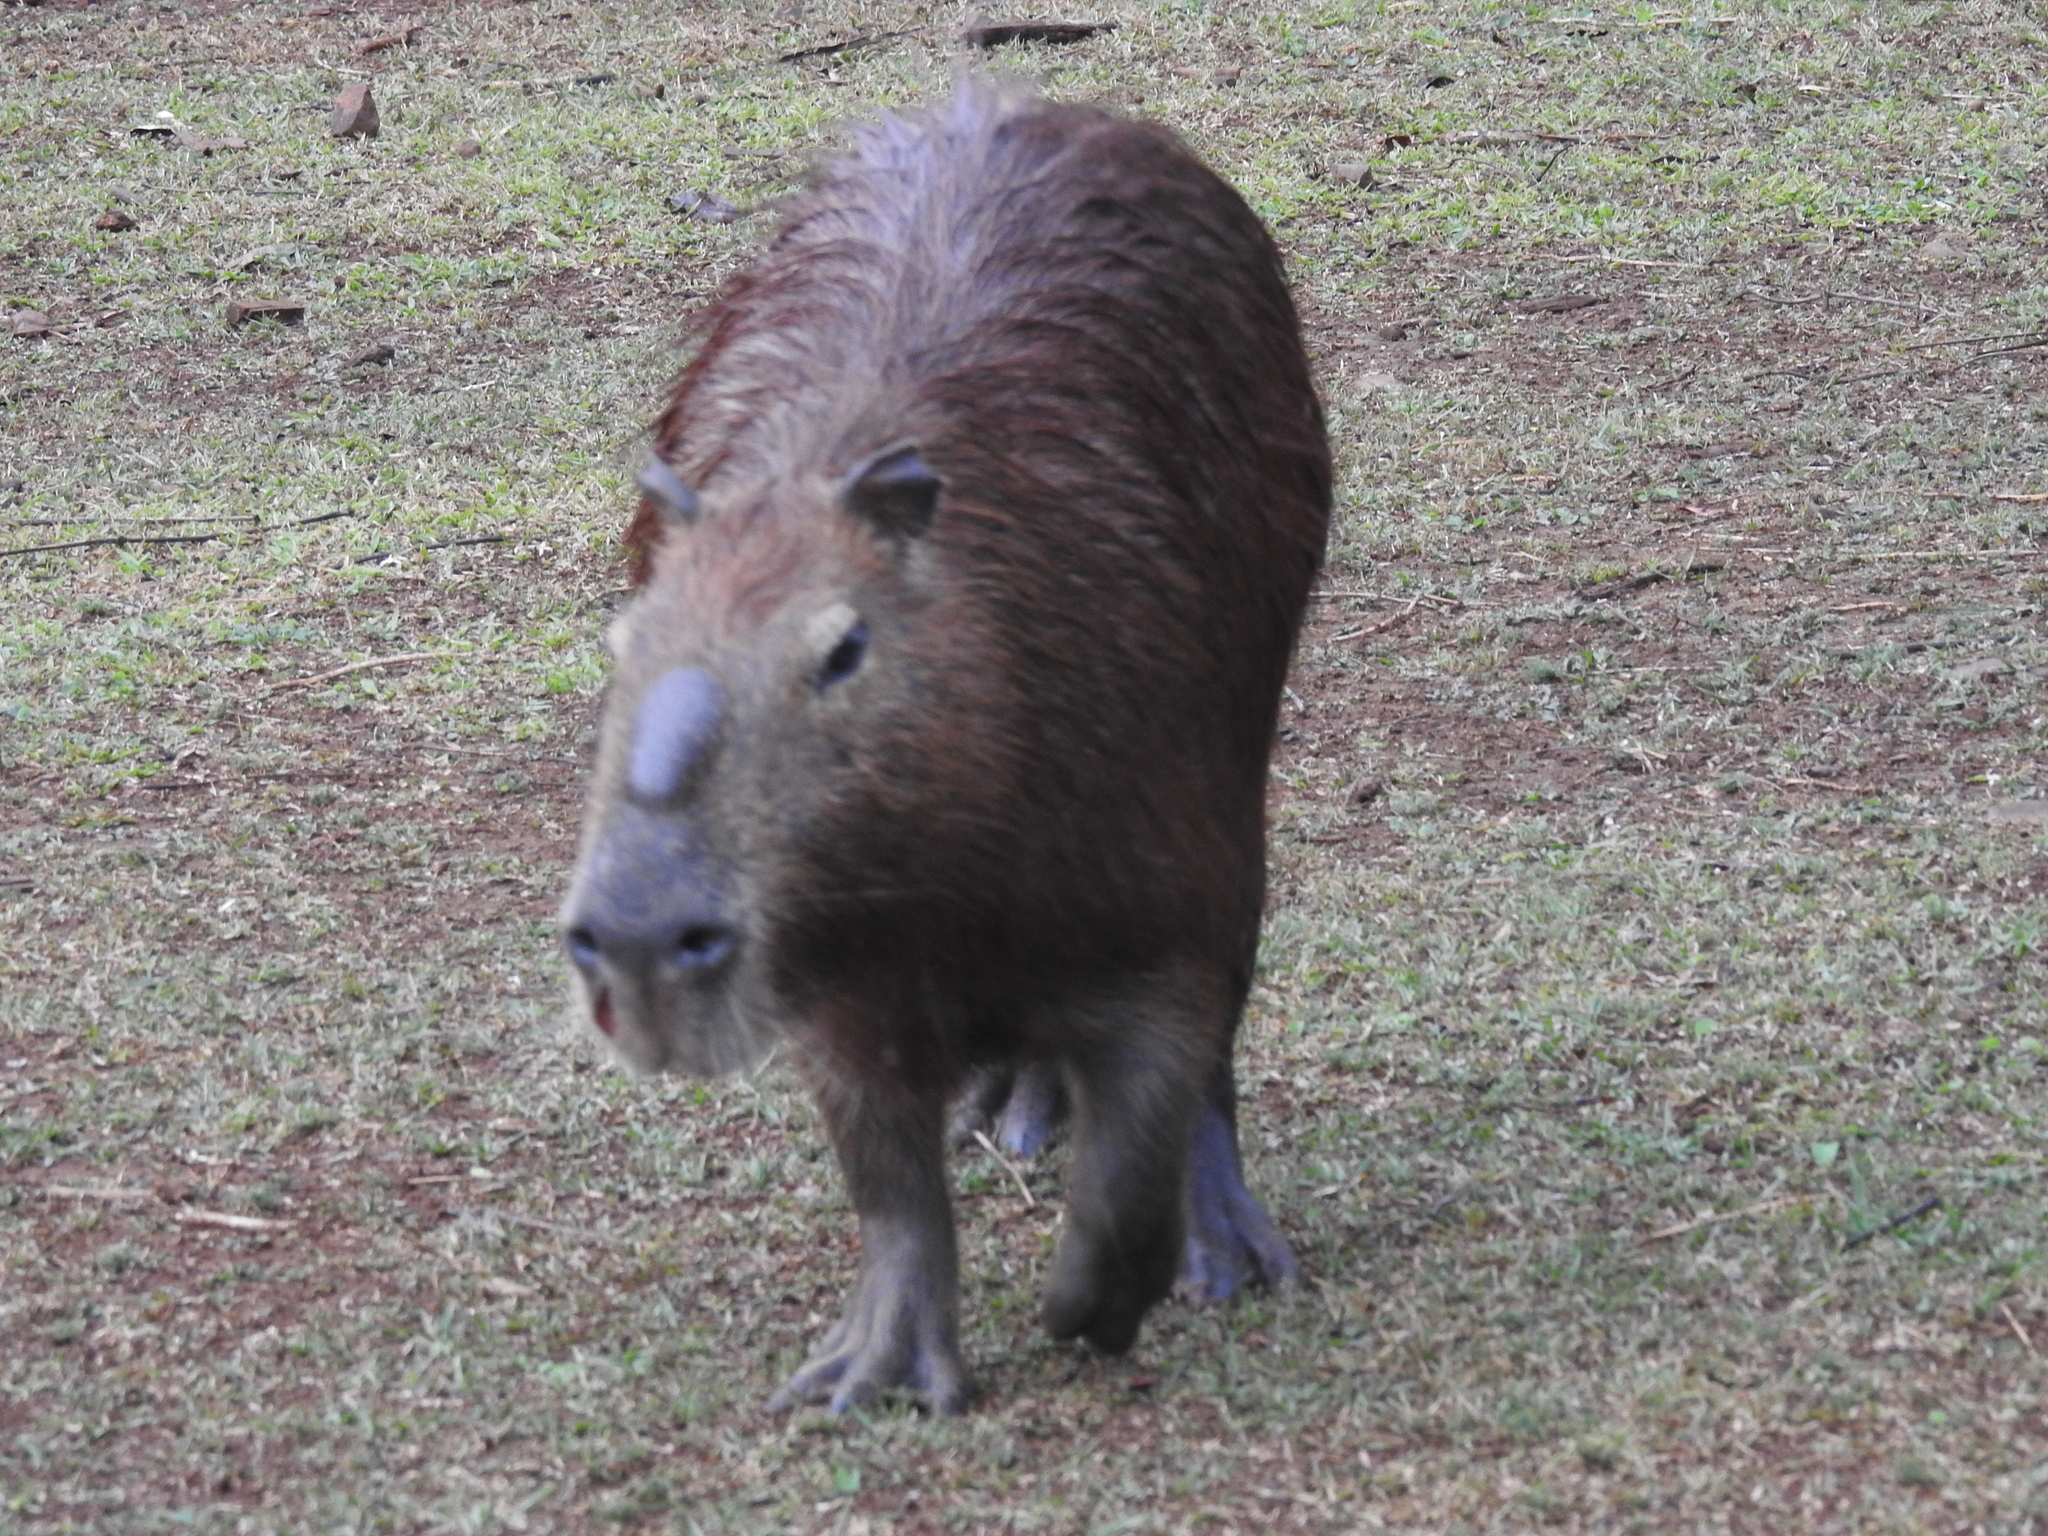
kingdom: Animalia
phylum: Chordata
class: Mammalia
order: Rodentia
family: Caviidae
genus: Hydrochoerus
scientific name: Hydrochoerus hydrochaeris
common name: Capybara
